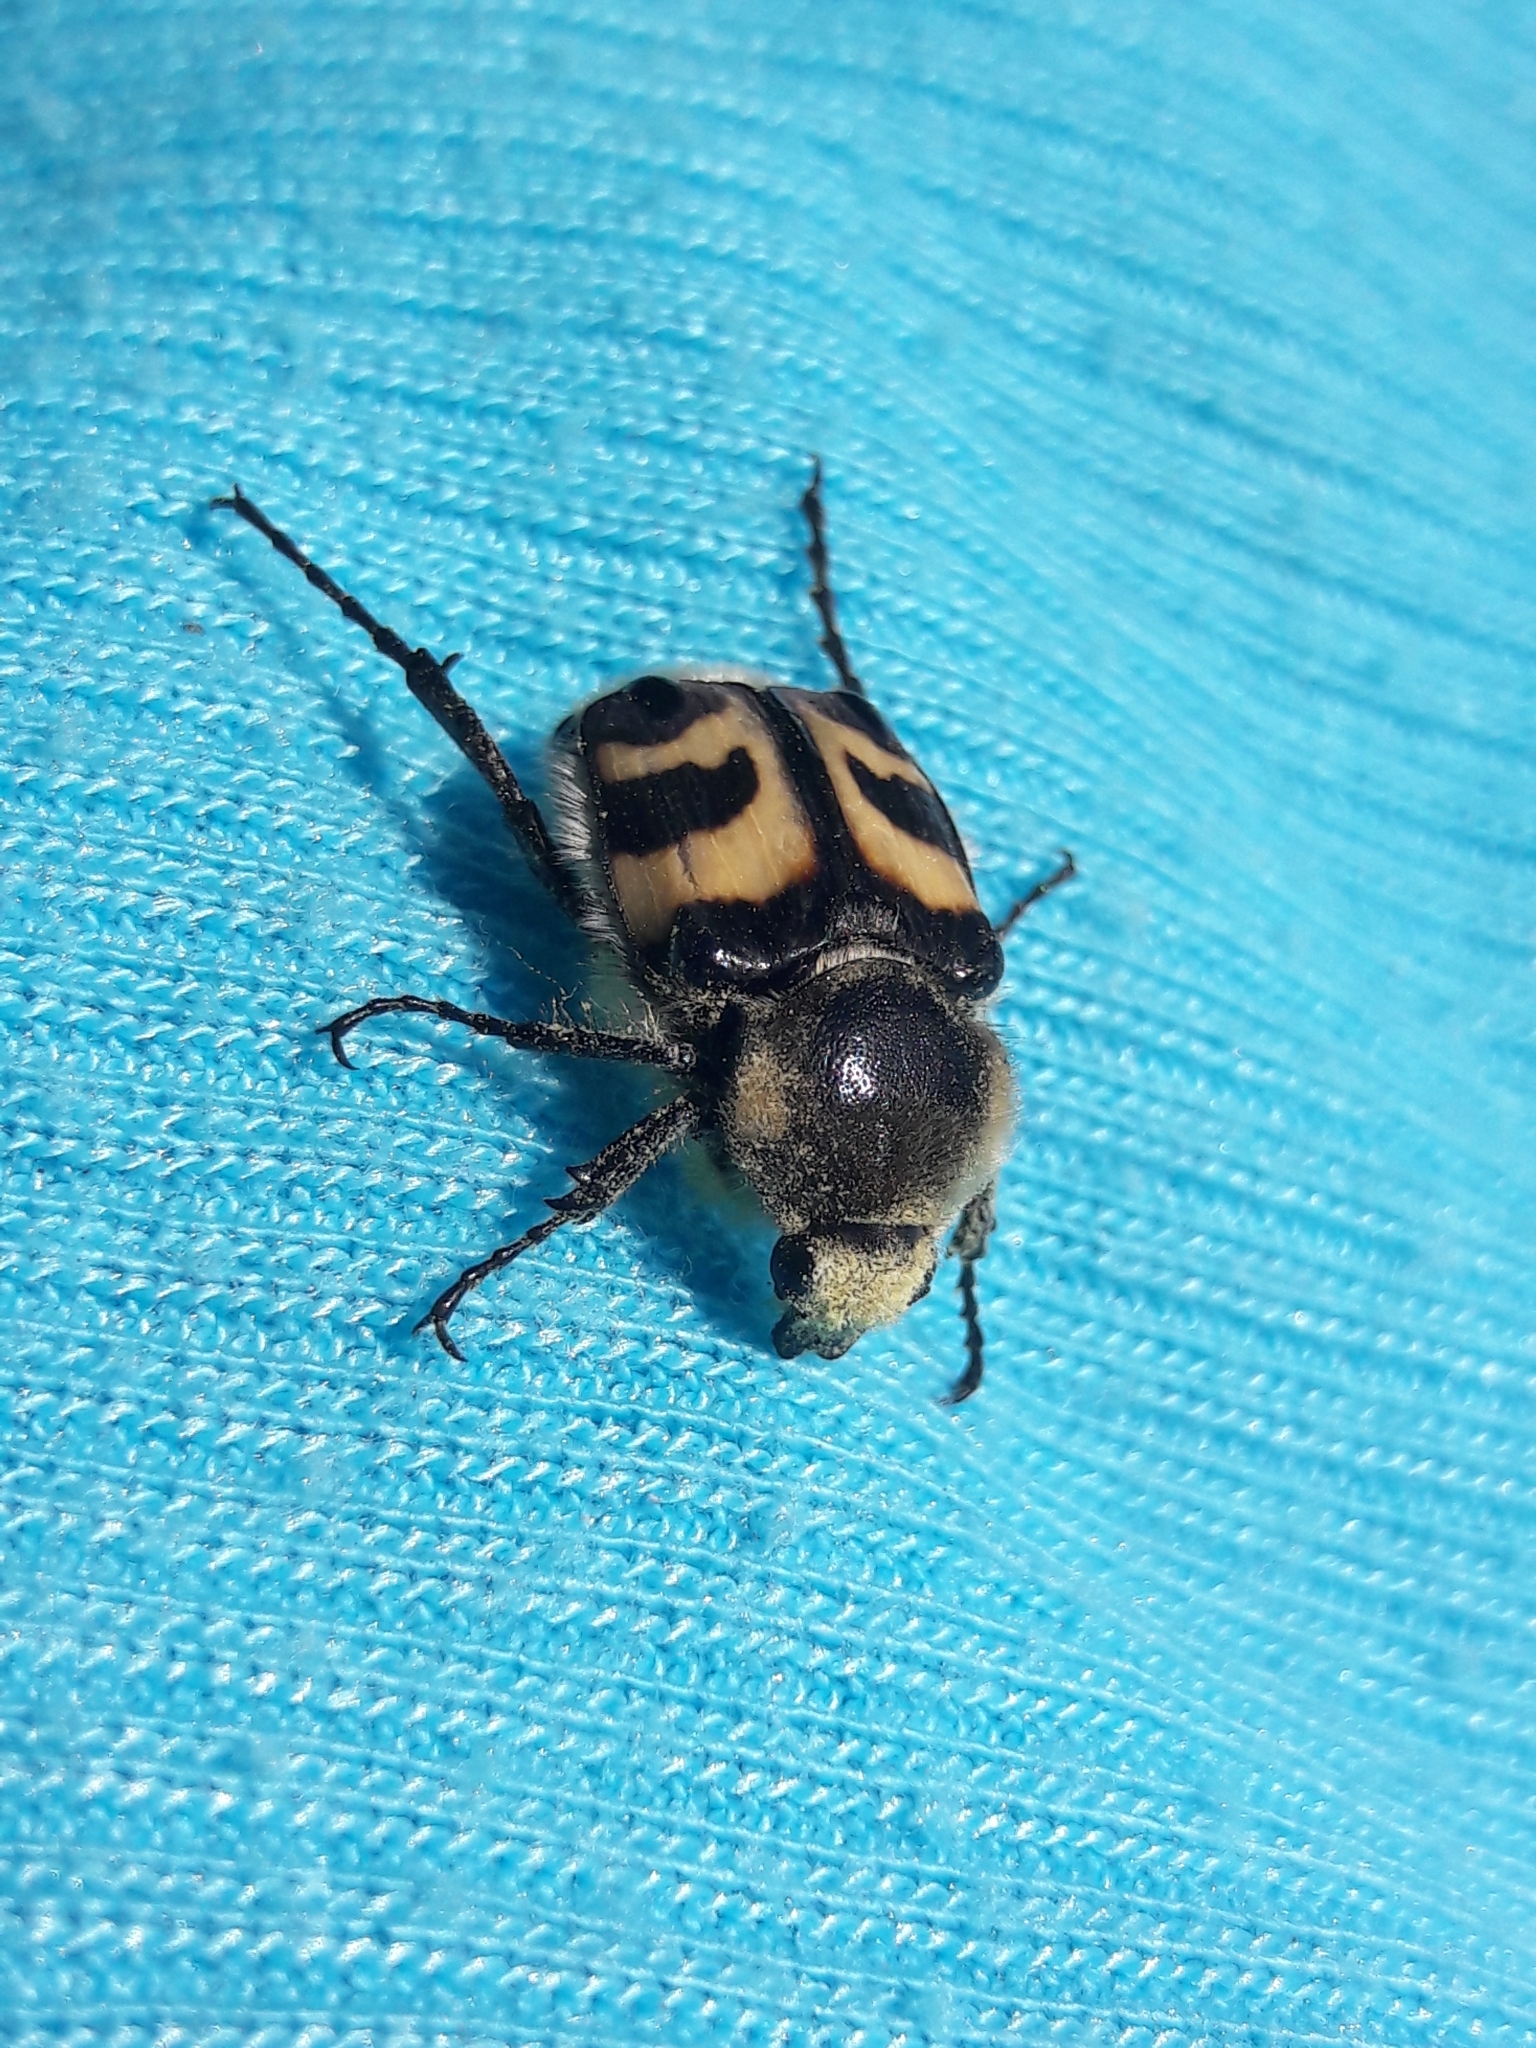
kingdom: Animalia
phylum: Arthropoda
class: Insecta
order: Coleoptera
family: Scarabaeidae
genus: Trichius
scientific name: Trichius fasciatus
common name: Bee beetle
